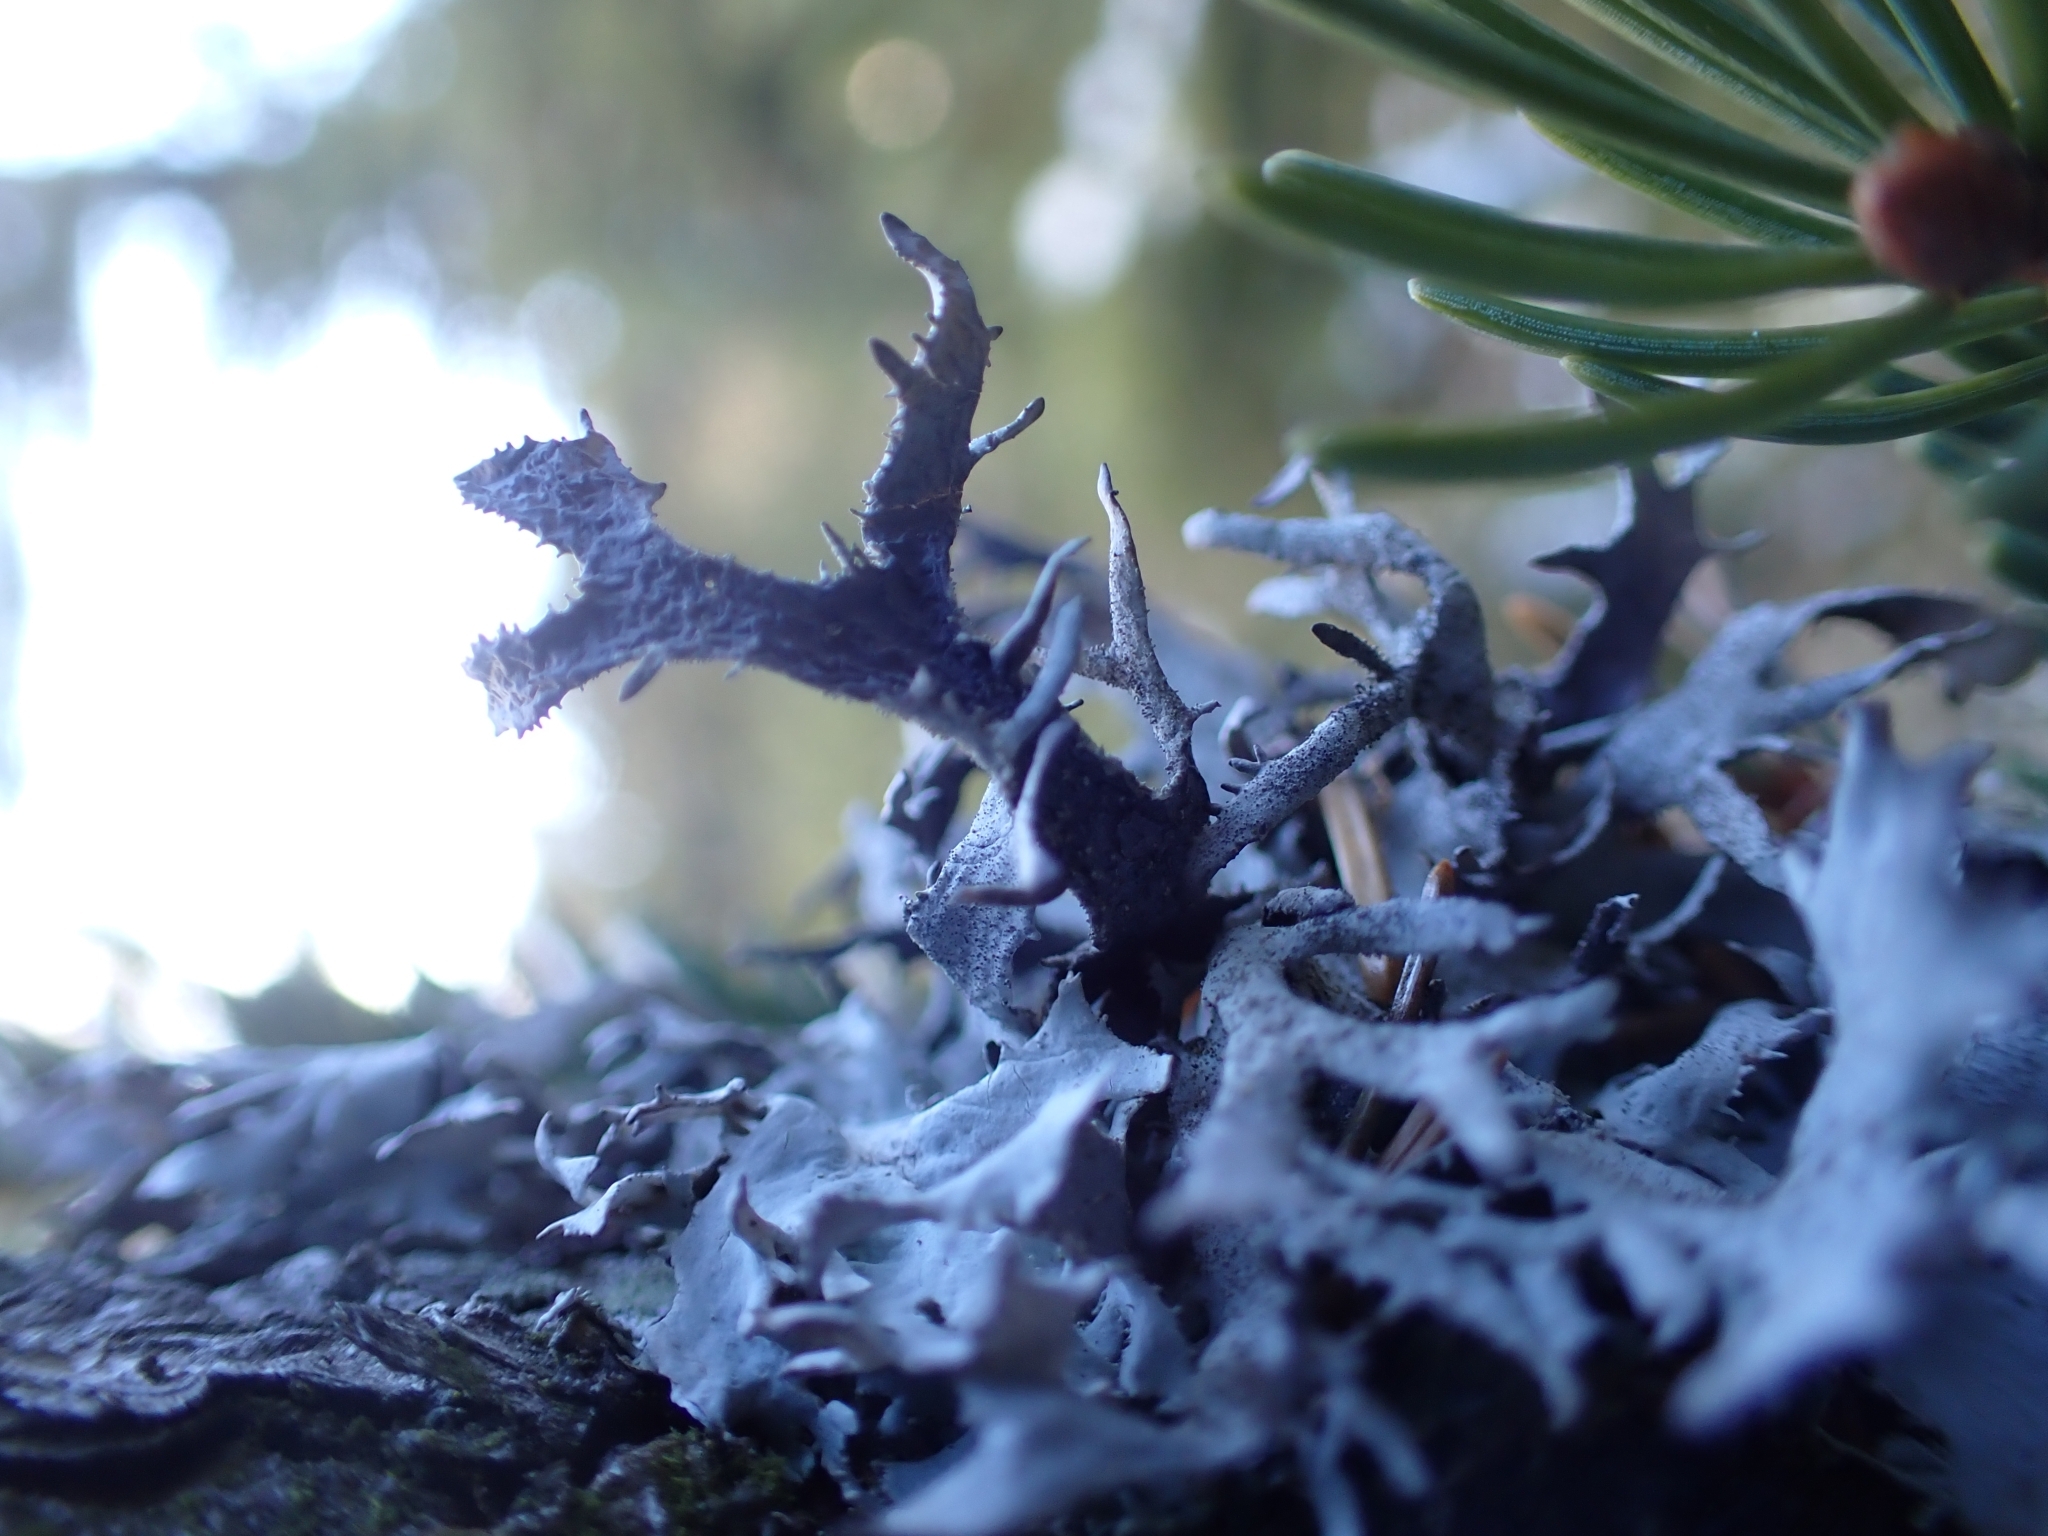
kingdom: Fungi
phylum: Ascomycota
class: Lecanoromycetes
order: Lecanorales
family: Parmeliaceae
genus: Pseudevernia
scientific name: Pseudevernia furfuracea
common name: Tree moss
